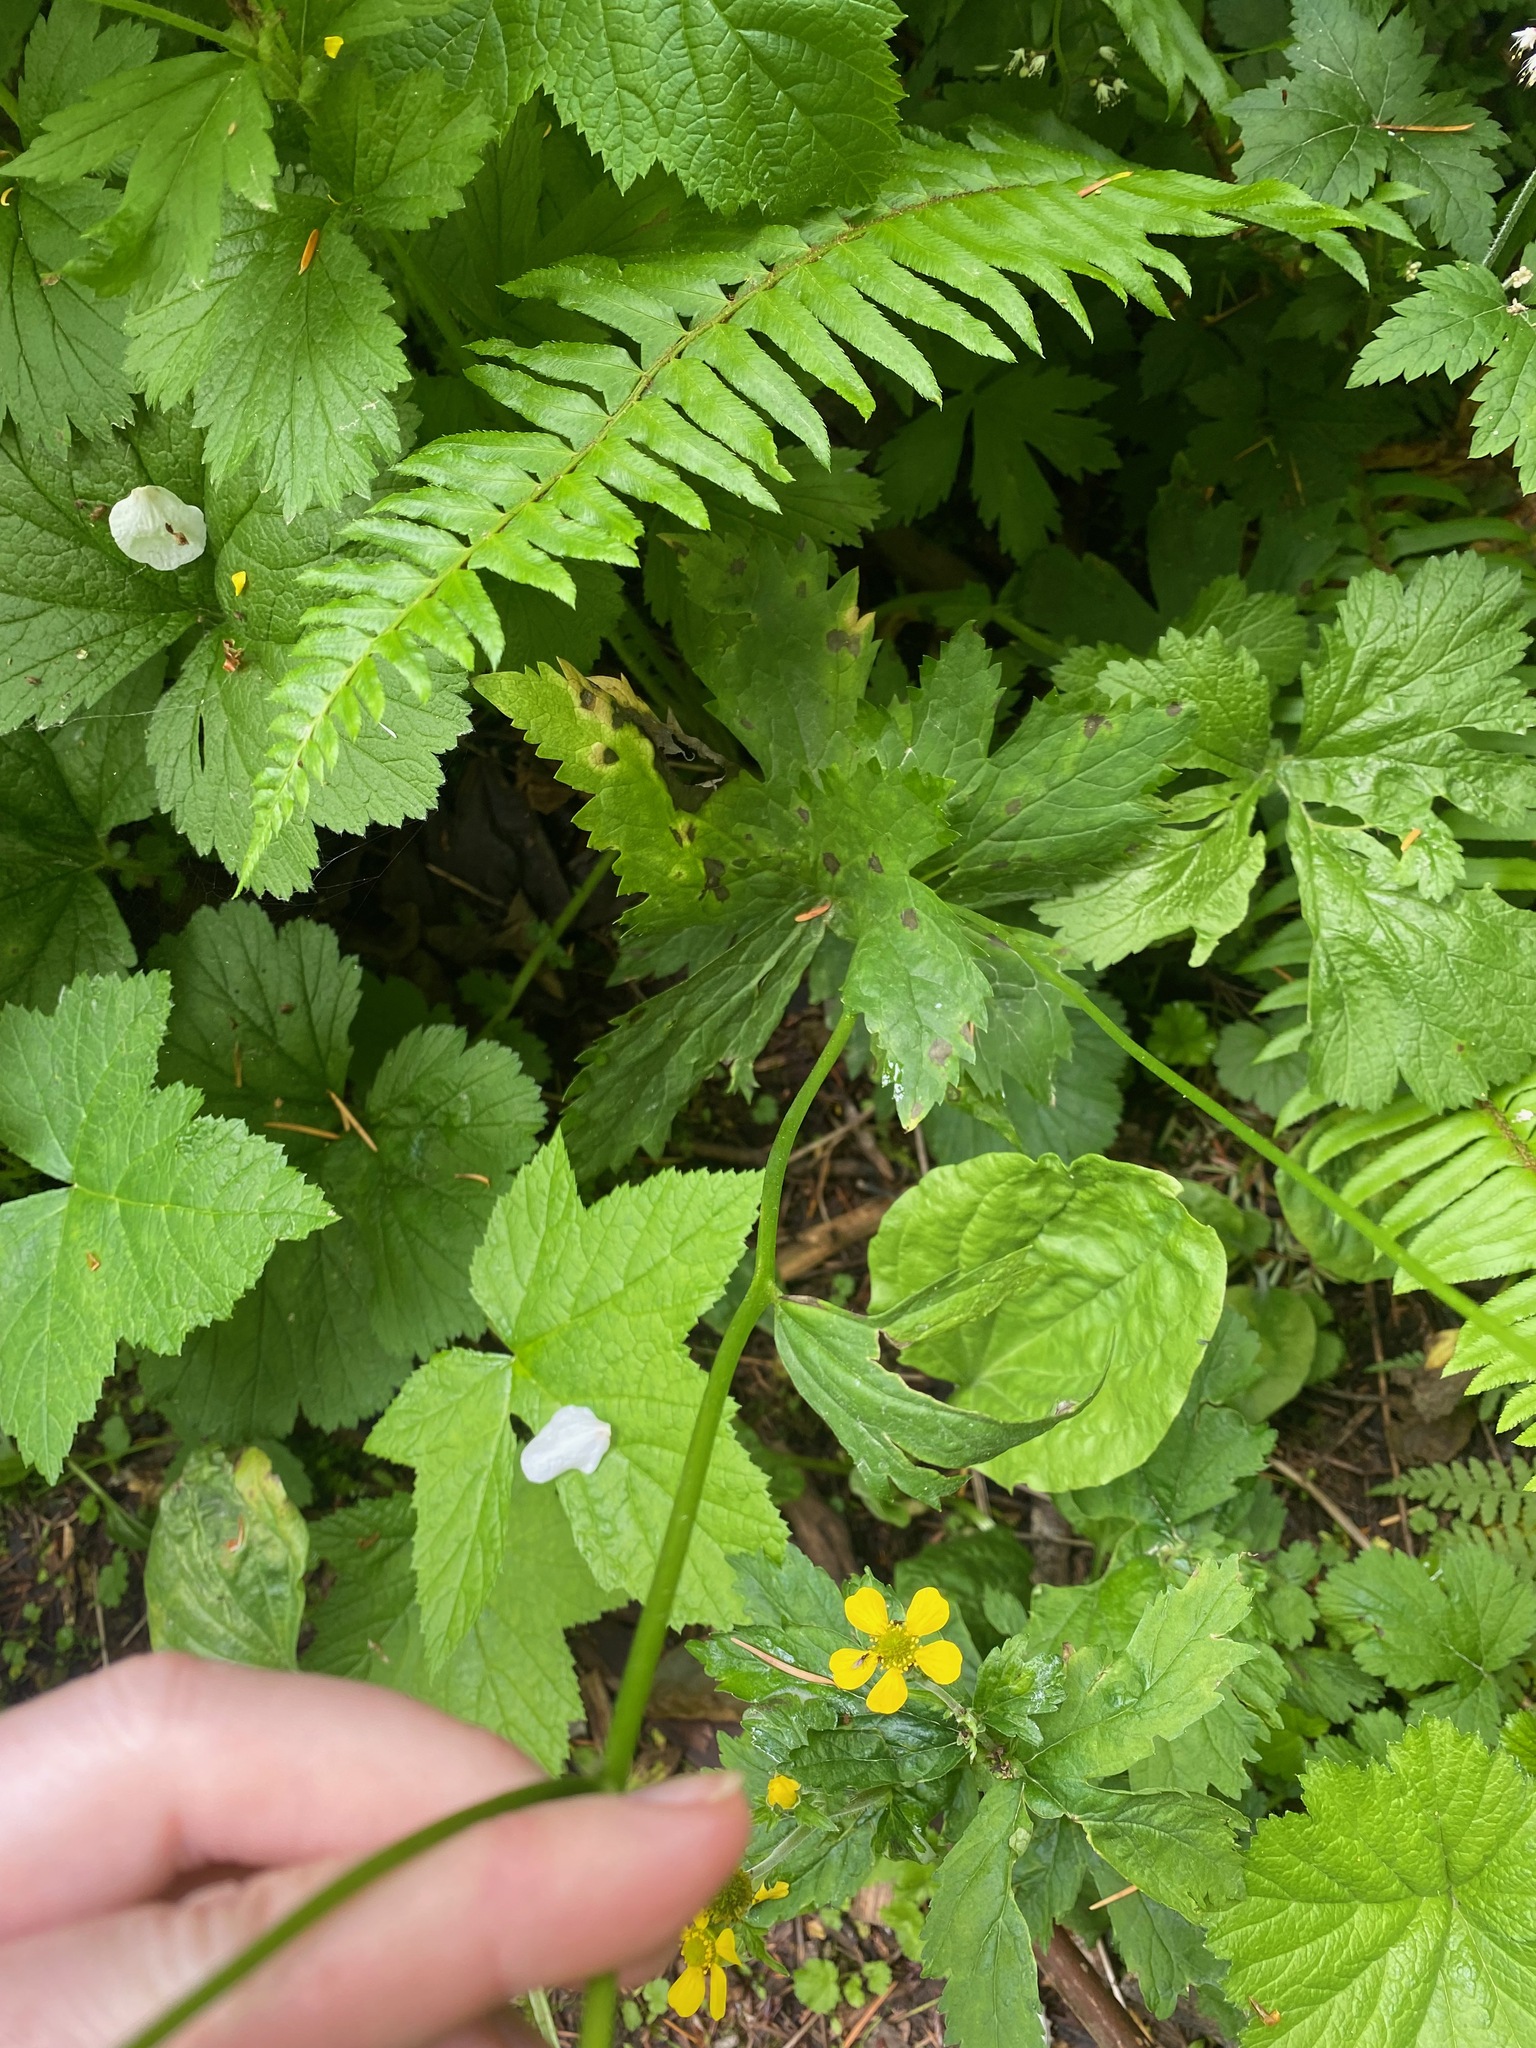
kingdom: Plantae
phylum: Tracheophyta
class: Magnoliopsida
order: Ranunculales
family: Ranunculaceae
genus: Trautvetteria
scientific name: Trautvetteria carolinensis
